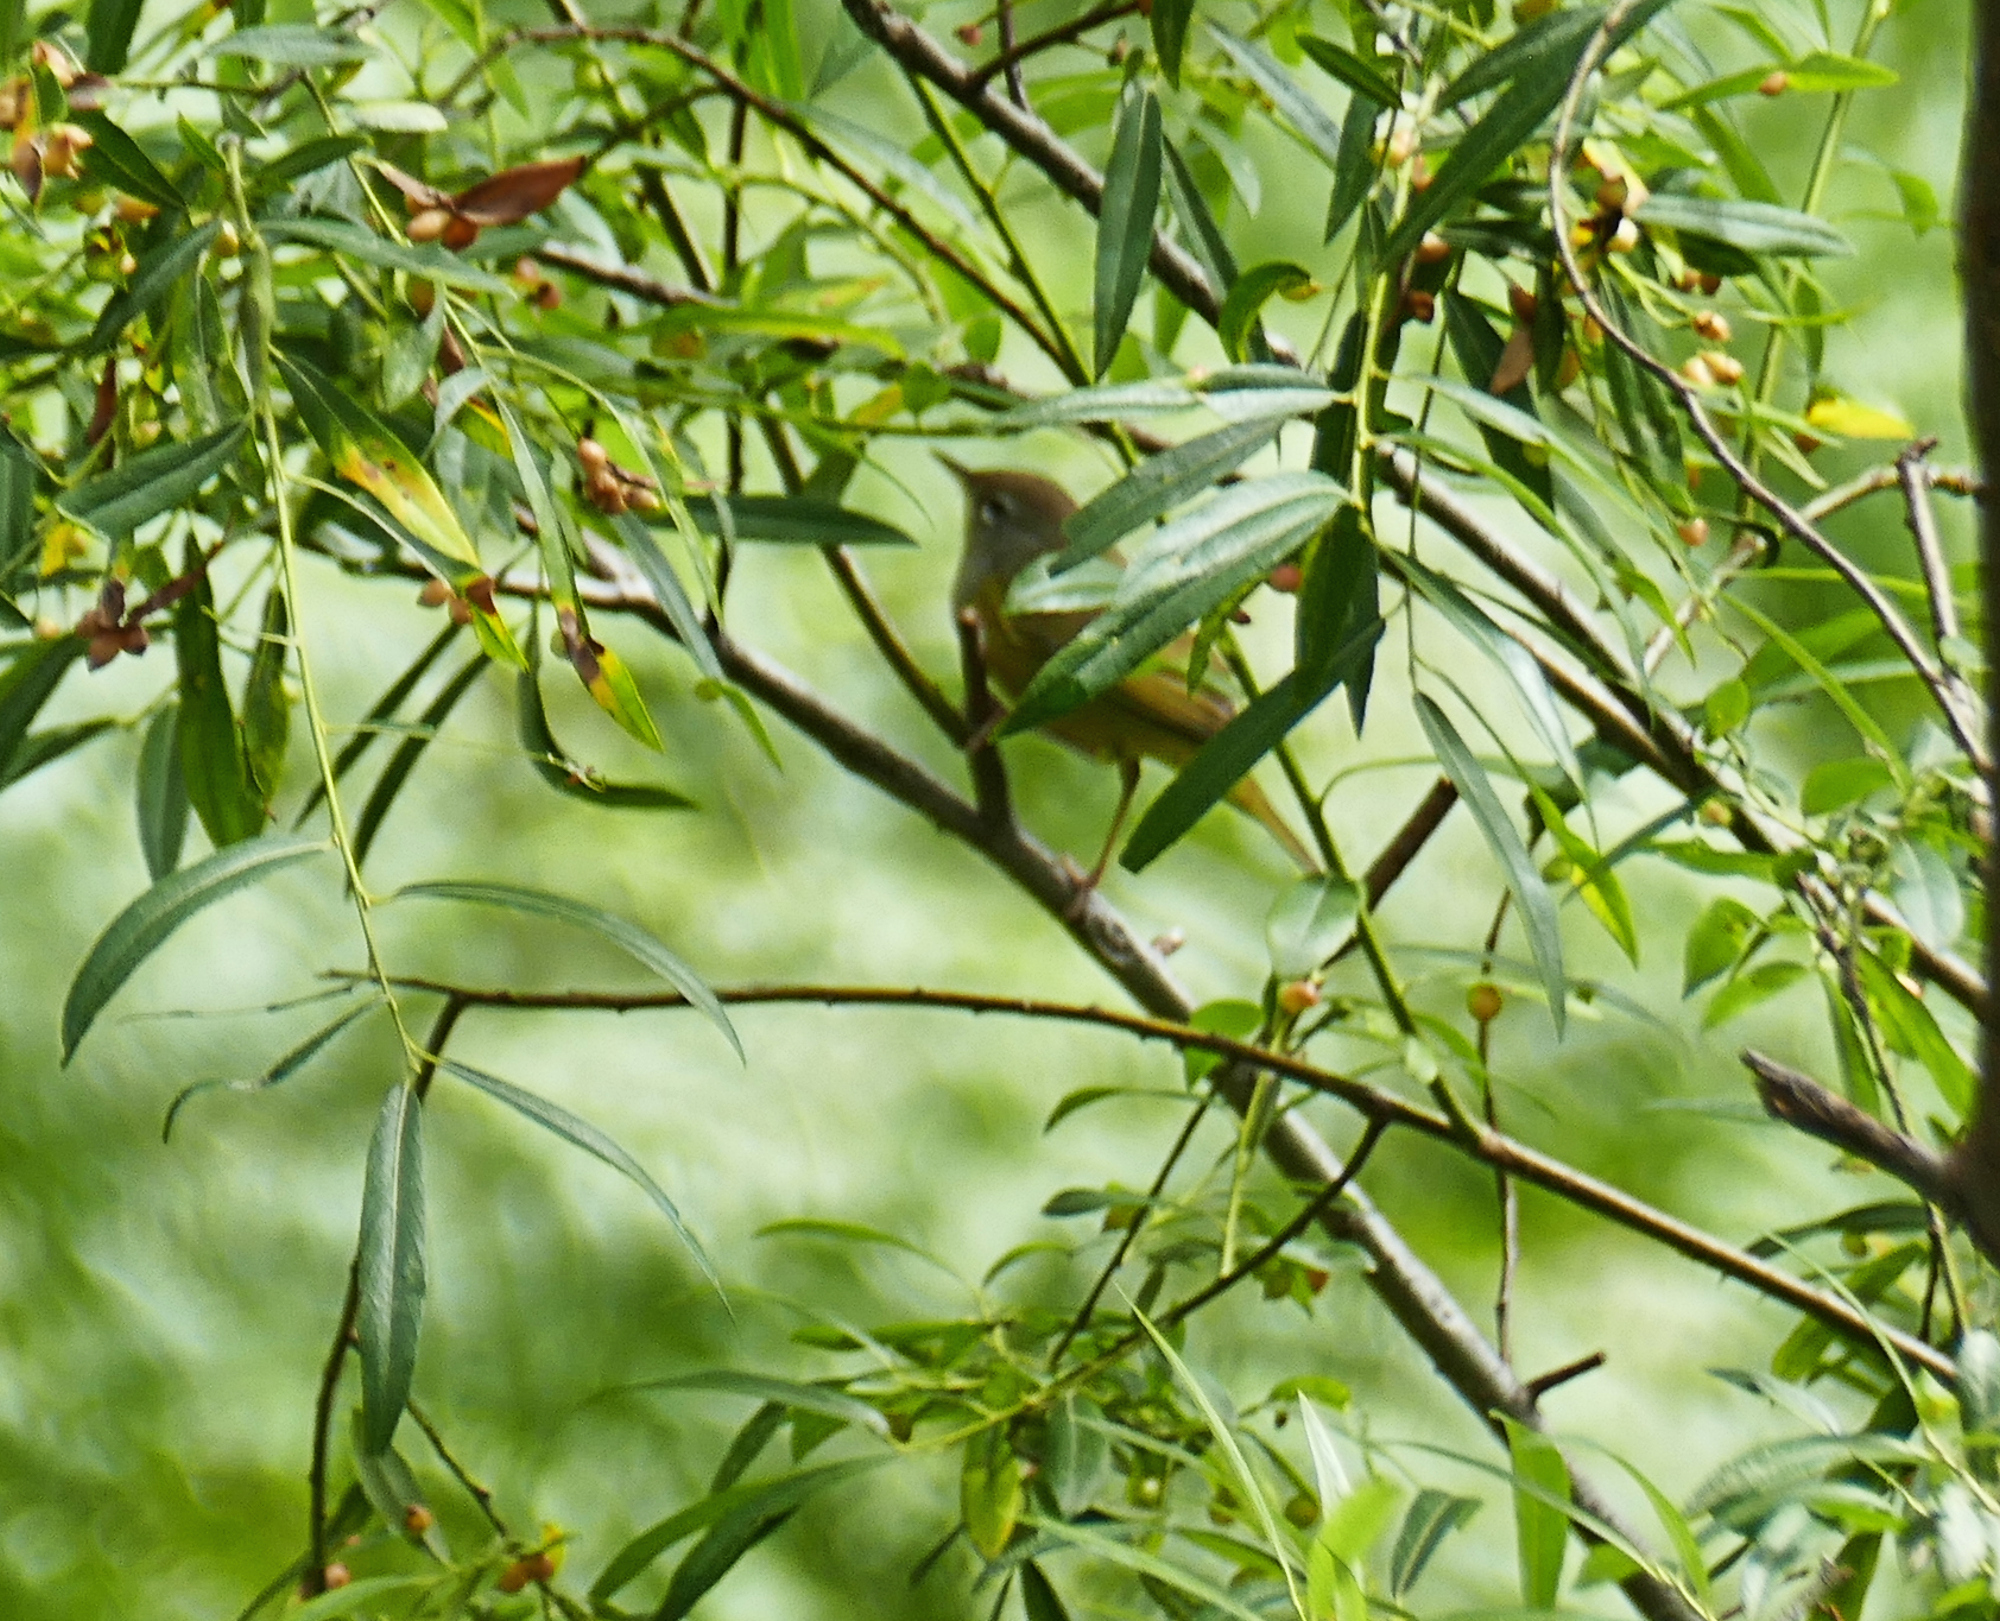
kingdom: Animalia
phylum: Chordata
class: Aves
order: Passeriformes
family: Parulidae
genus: Geothlypis
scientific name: Geothlypis tolmiei
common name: Macgillivray's warbler
